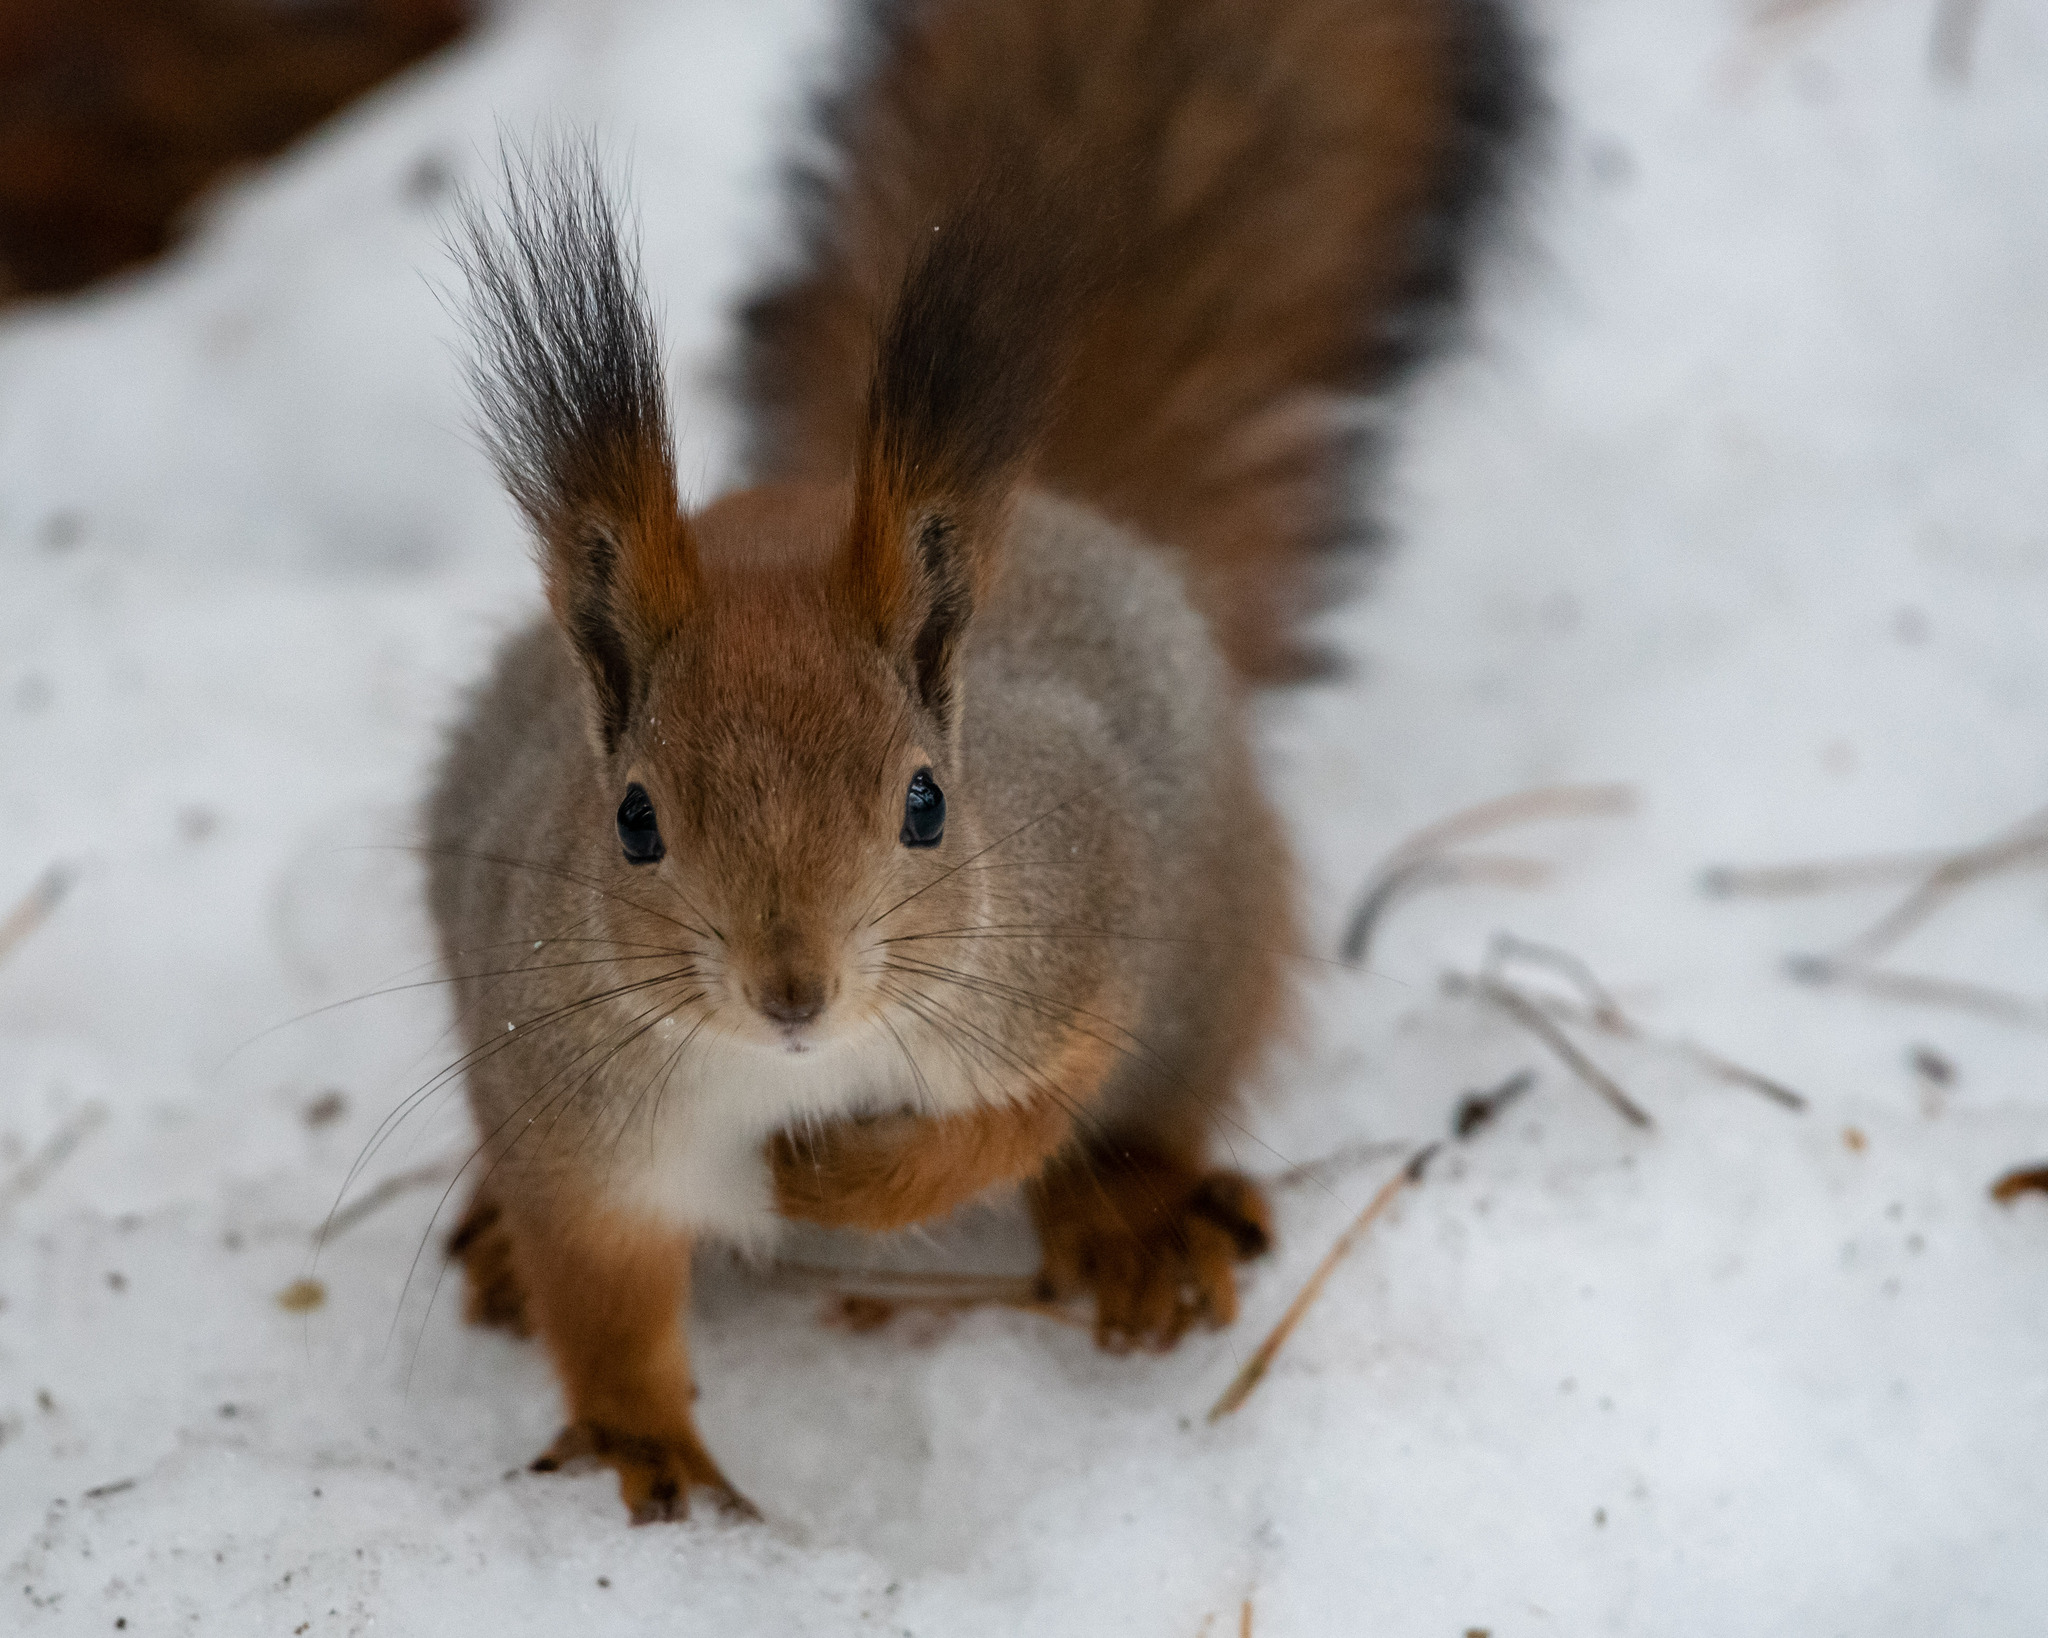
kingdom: Animalia
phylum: Chordata
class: Mammalia
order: Rodentia
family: Sciuridae
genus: Sciurus
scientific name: Sciurus vulgaris
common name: Eurasian red squirrel
